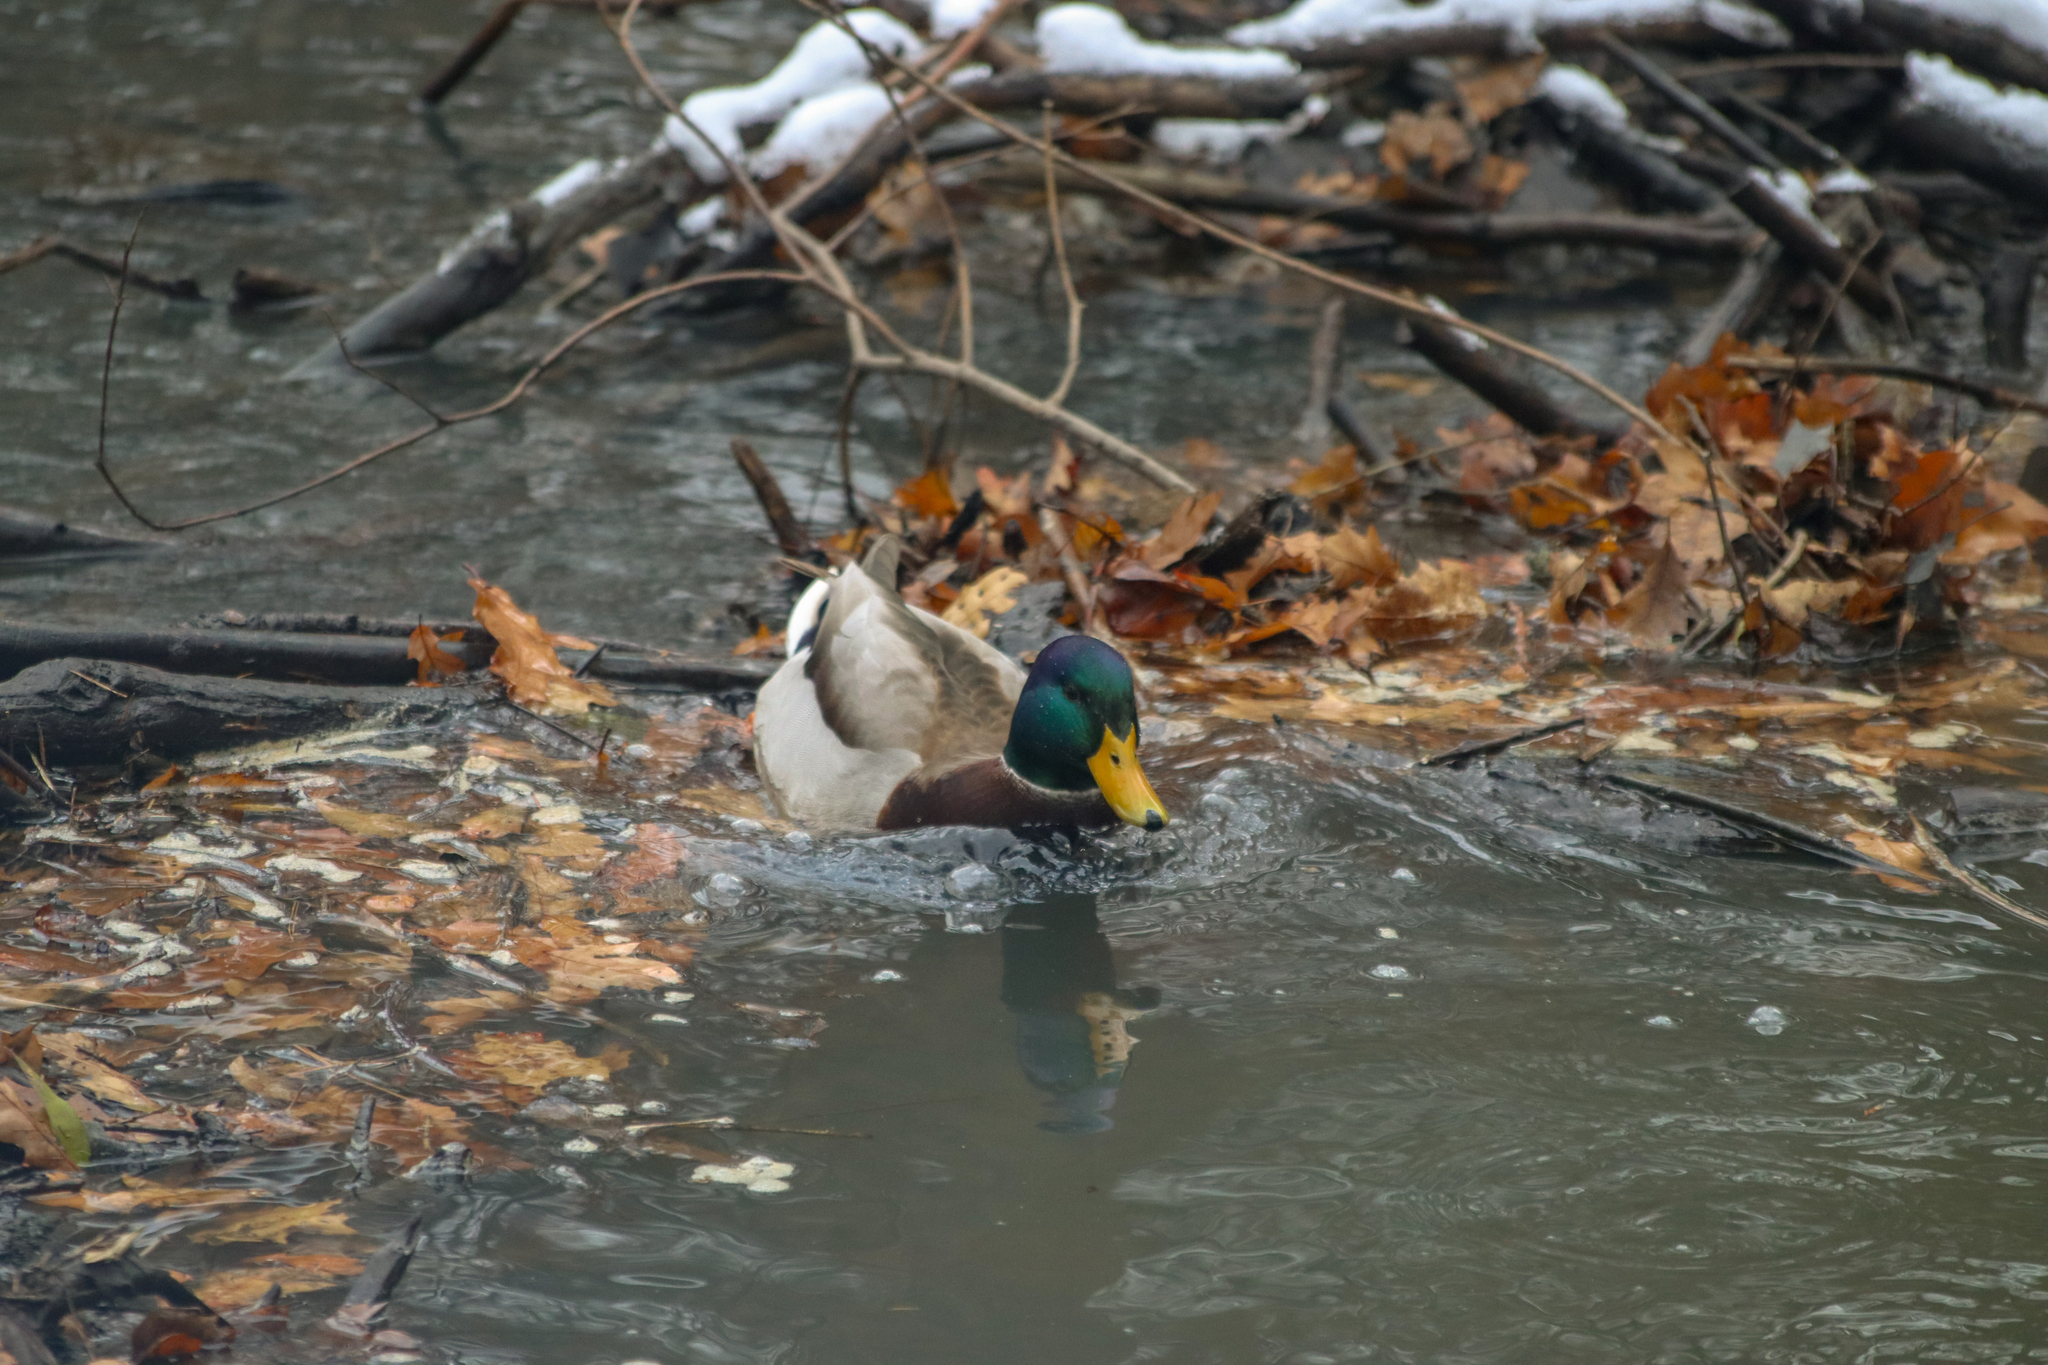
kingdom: Animalia
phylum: Chordata
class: Aves
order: Anseriformes
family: Anatidae
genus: Anas
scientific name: Anas platyrhynchos
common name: Mallard
